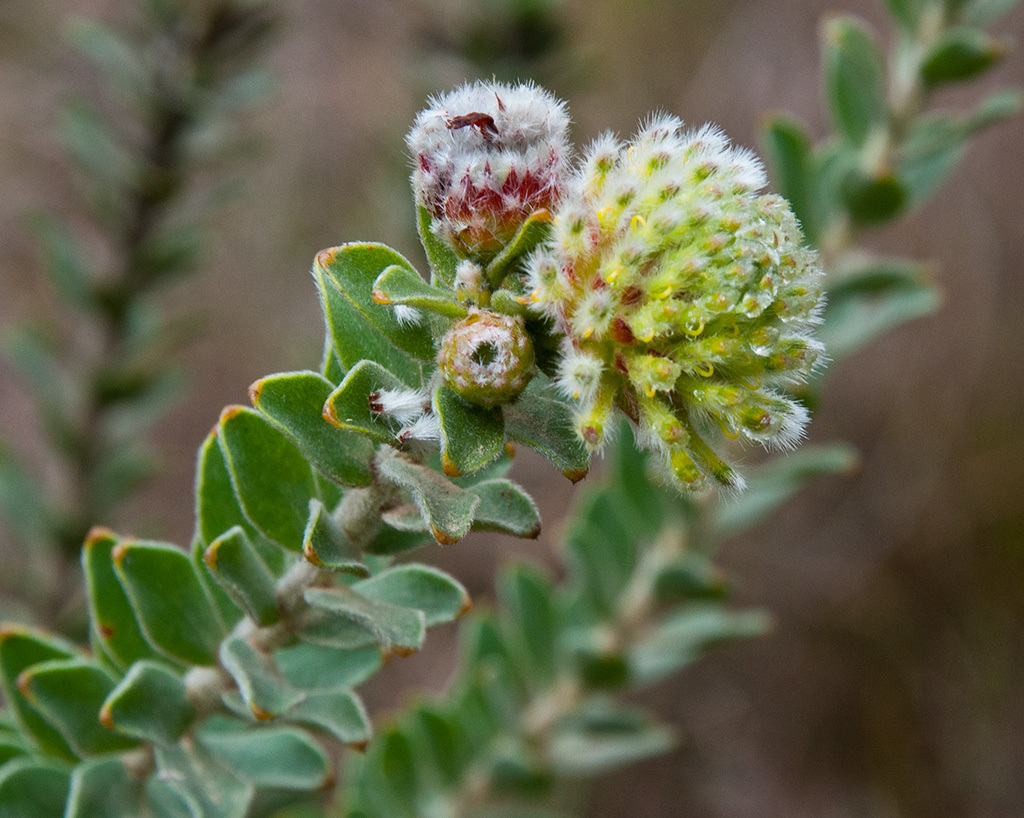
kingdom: Plantae
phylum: Tracheophyta
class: Magnoliopsida
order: Proteales
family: Proteaceae
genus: Leucospermum
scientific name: Leucospermum truncatulum
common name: Oval-leaf pincushion
